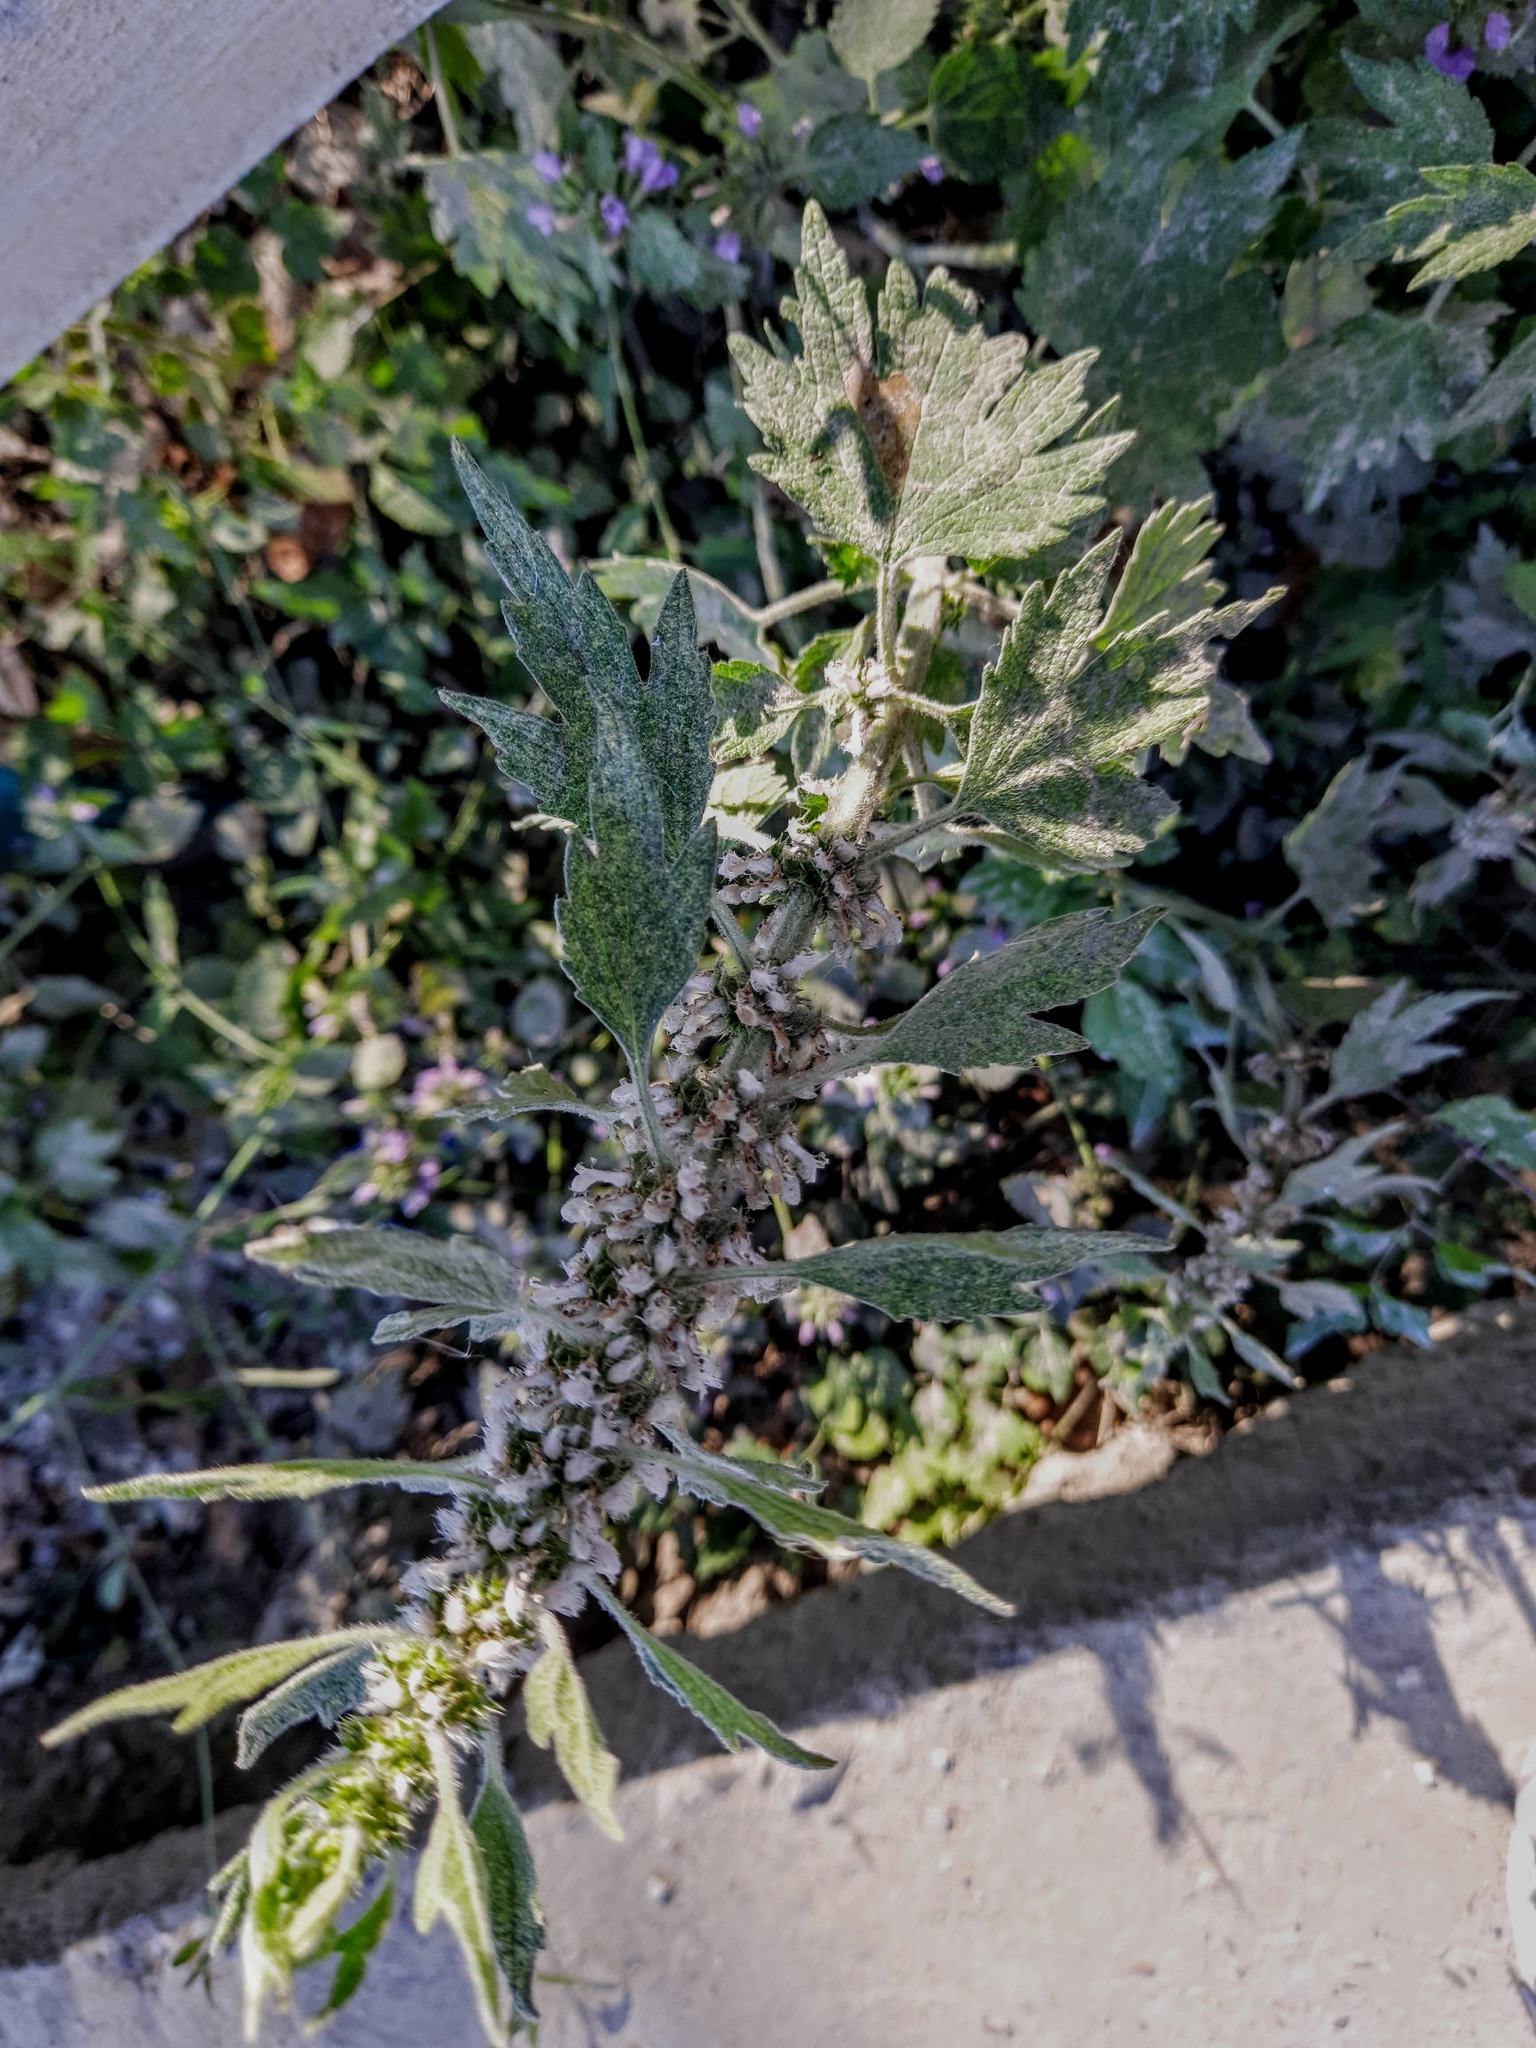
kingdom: Plantae
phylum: Tracheophyta
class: Magnoliopsida
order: Lamiales
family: Lamiaceae
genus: Leonurus
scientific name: Leonurus quinquelobatus
